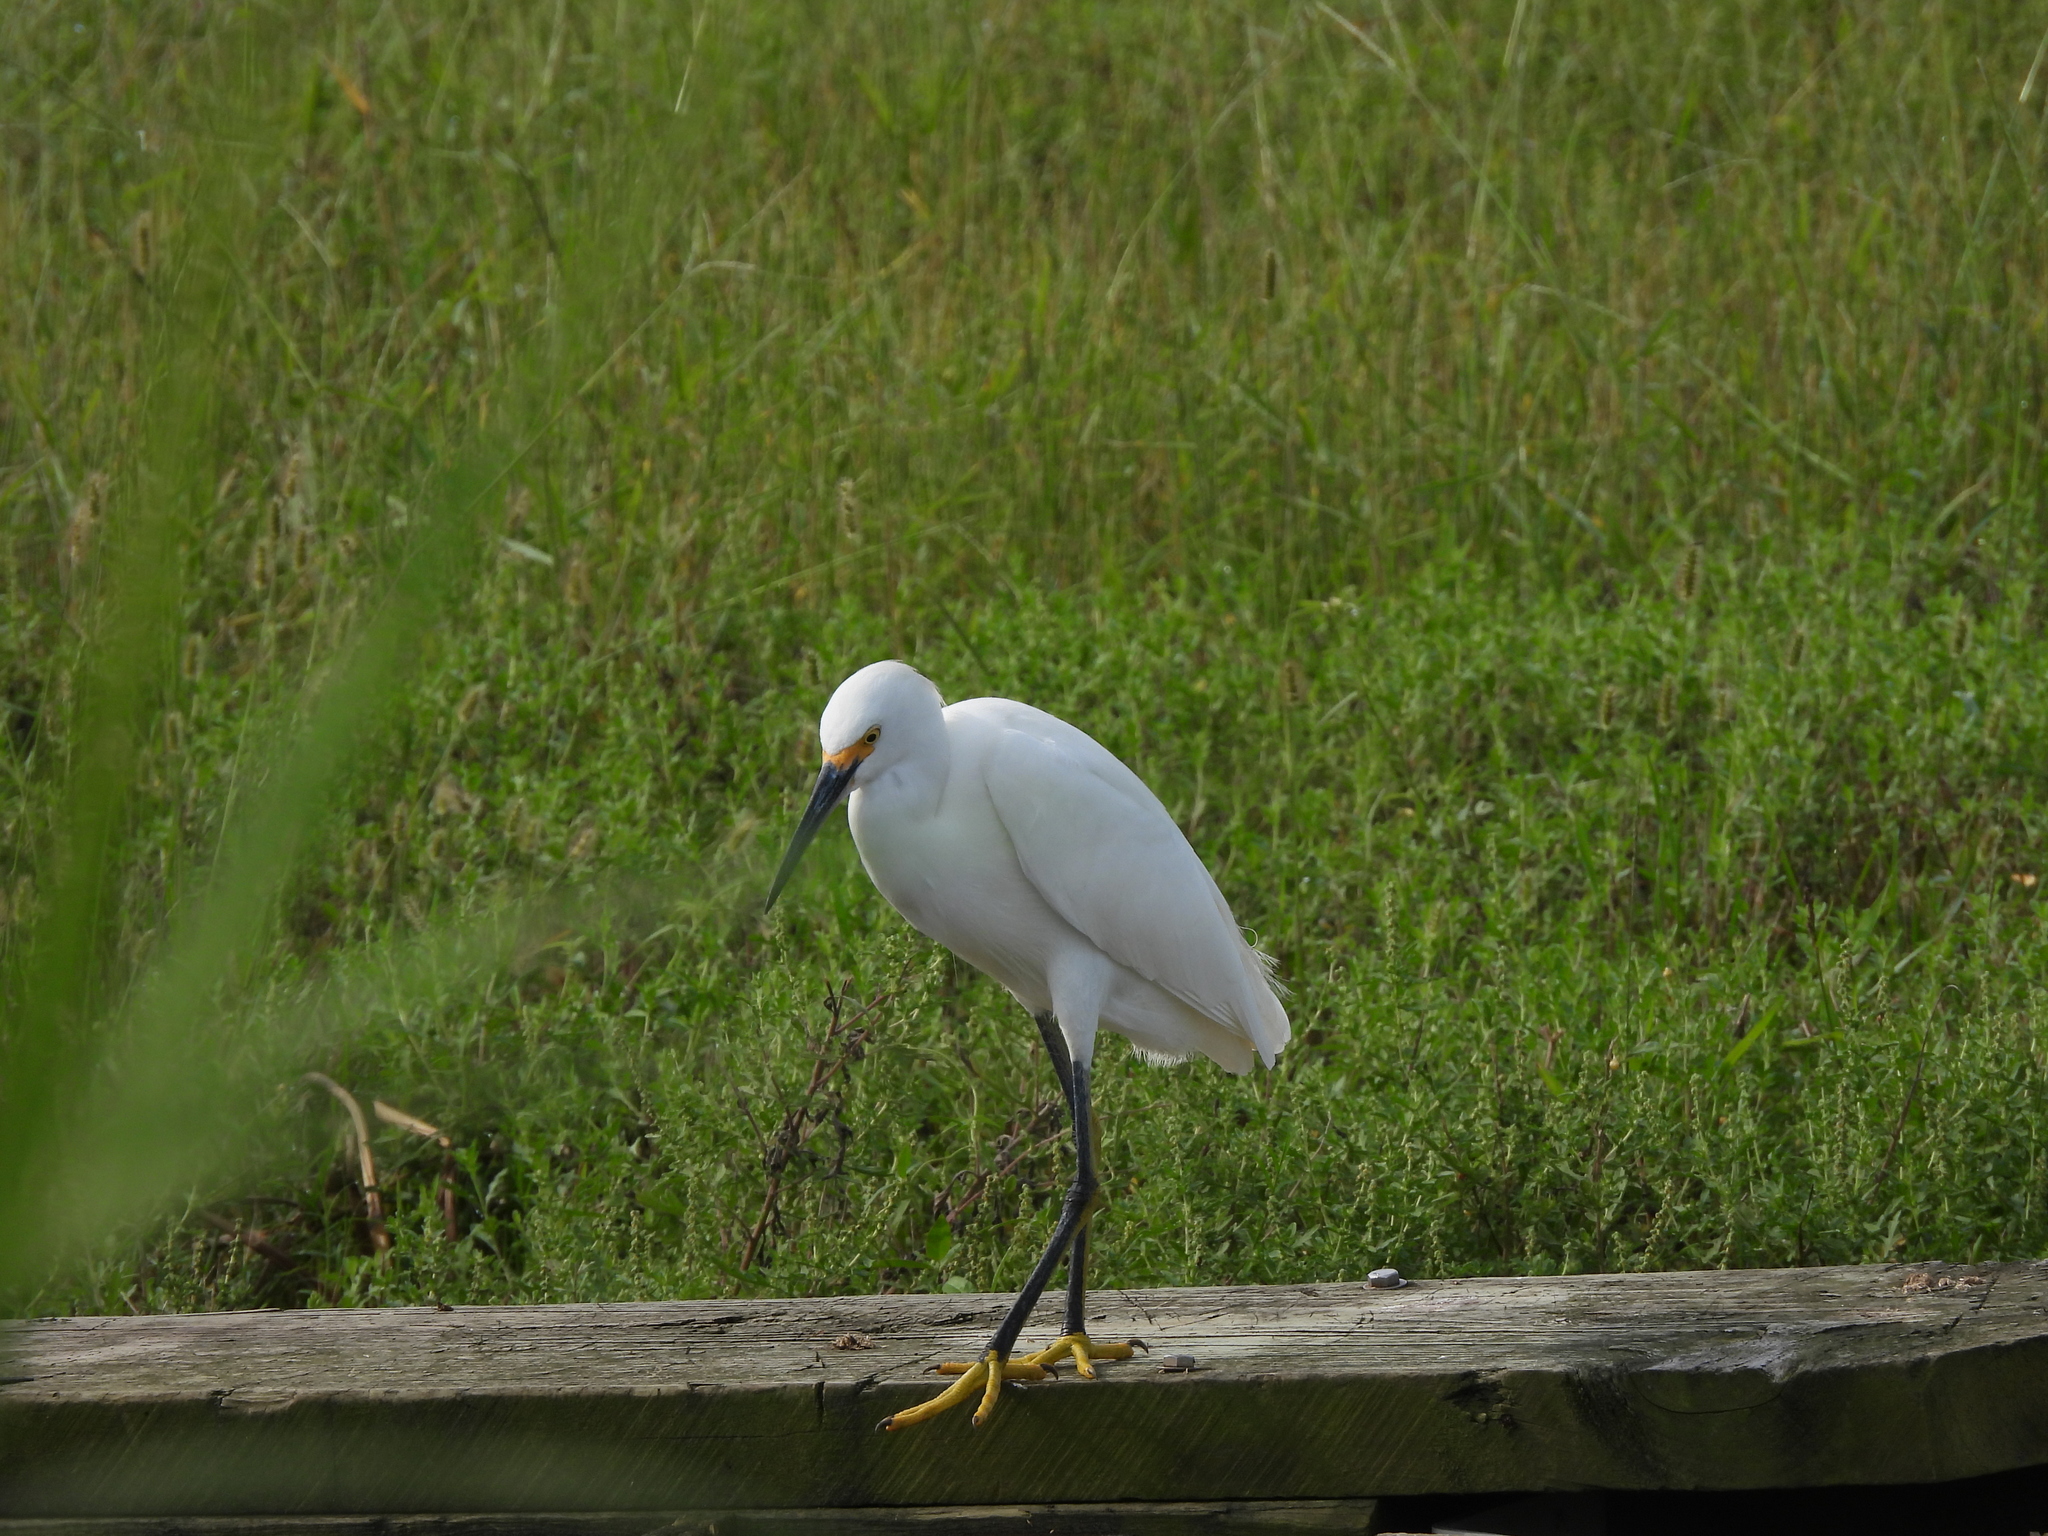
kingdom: Animalia
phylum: Chordata
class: Aves
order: Pelecaniformes
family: Ardeidae
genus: Egretta
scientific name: Egretta thula
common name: Snowy egret
